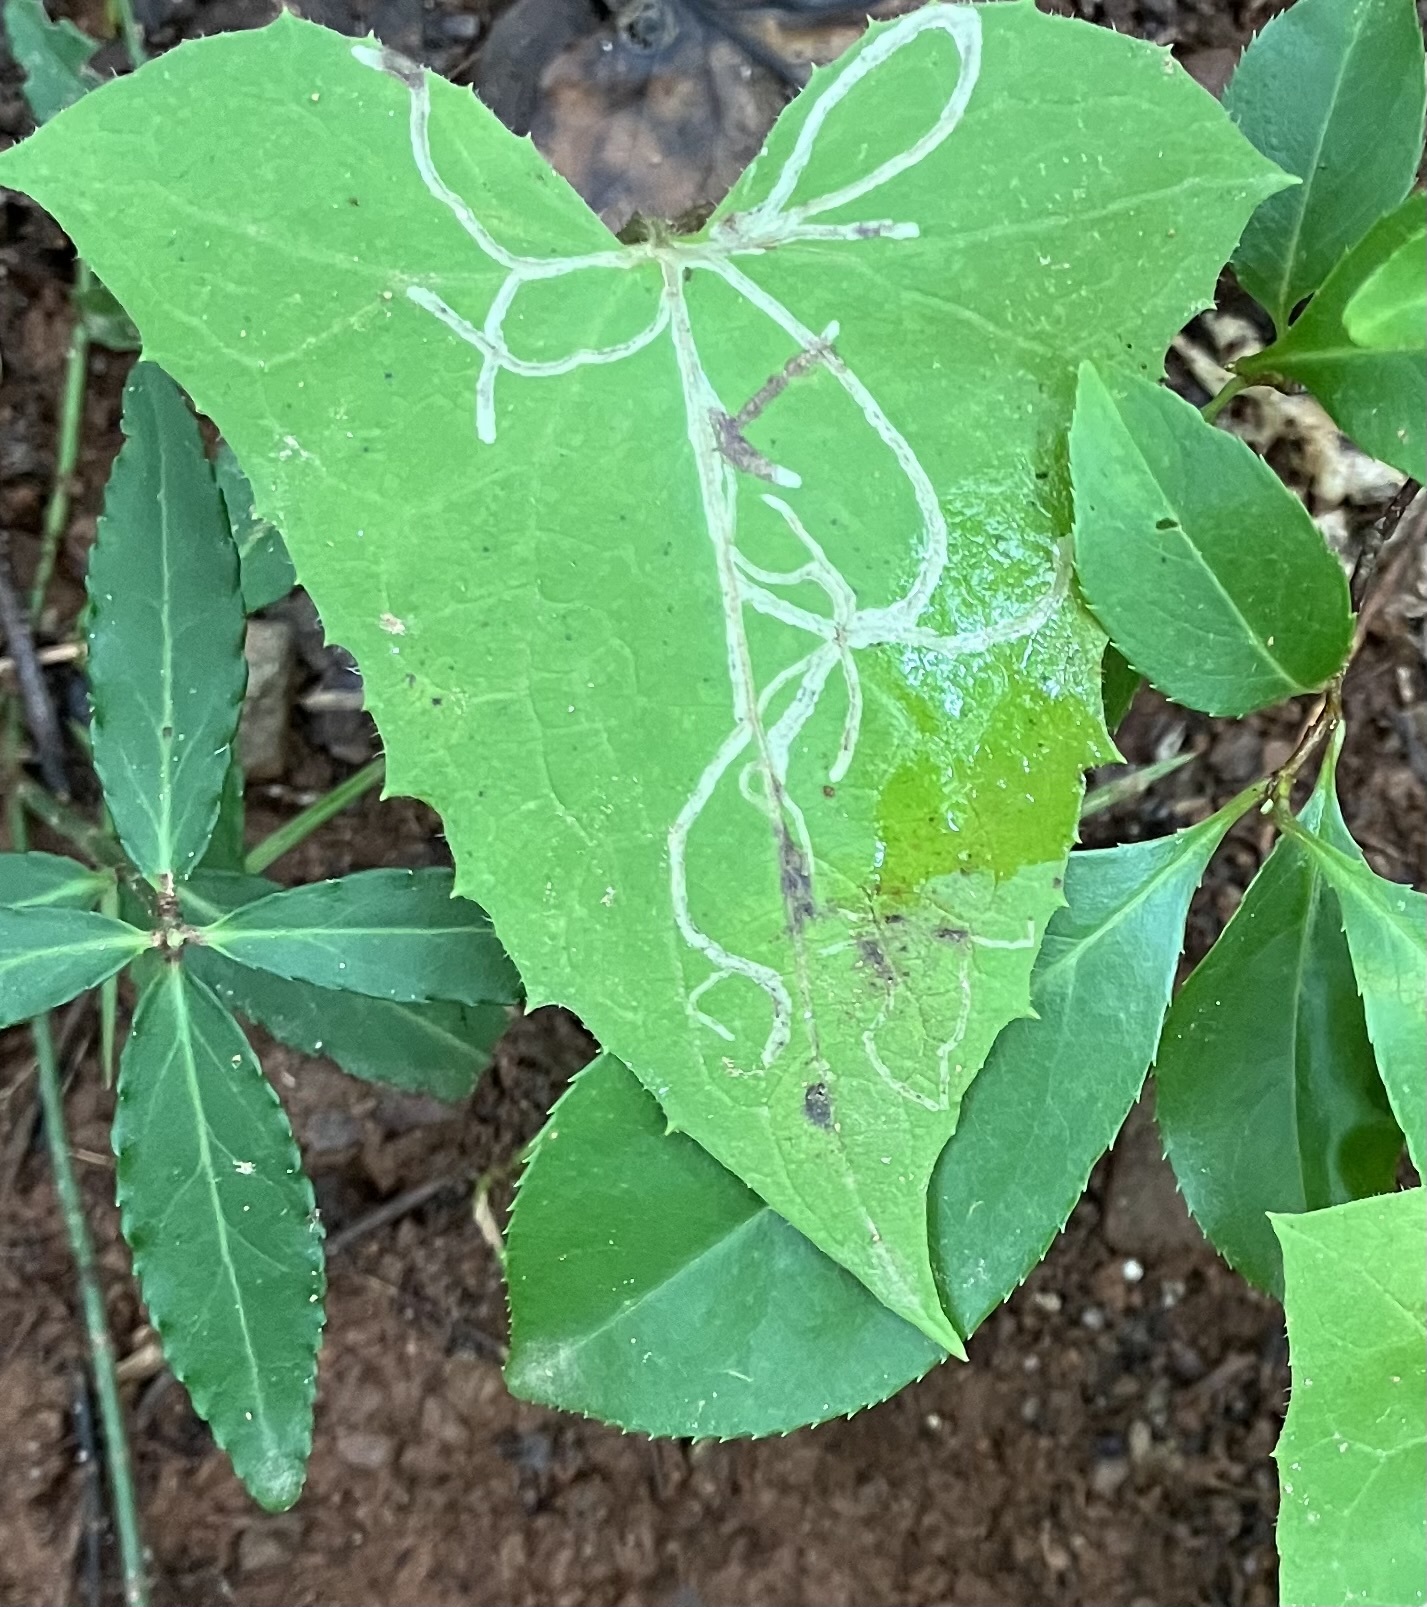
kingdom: Animalia
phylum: Arthropoda
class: Insecta
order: Diptera
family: Agromyzidae
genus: Ophiomyia
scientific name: Ophiomyia congregata
